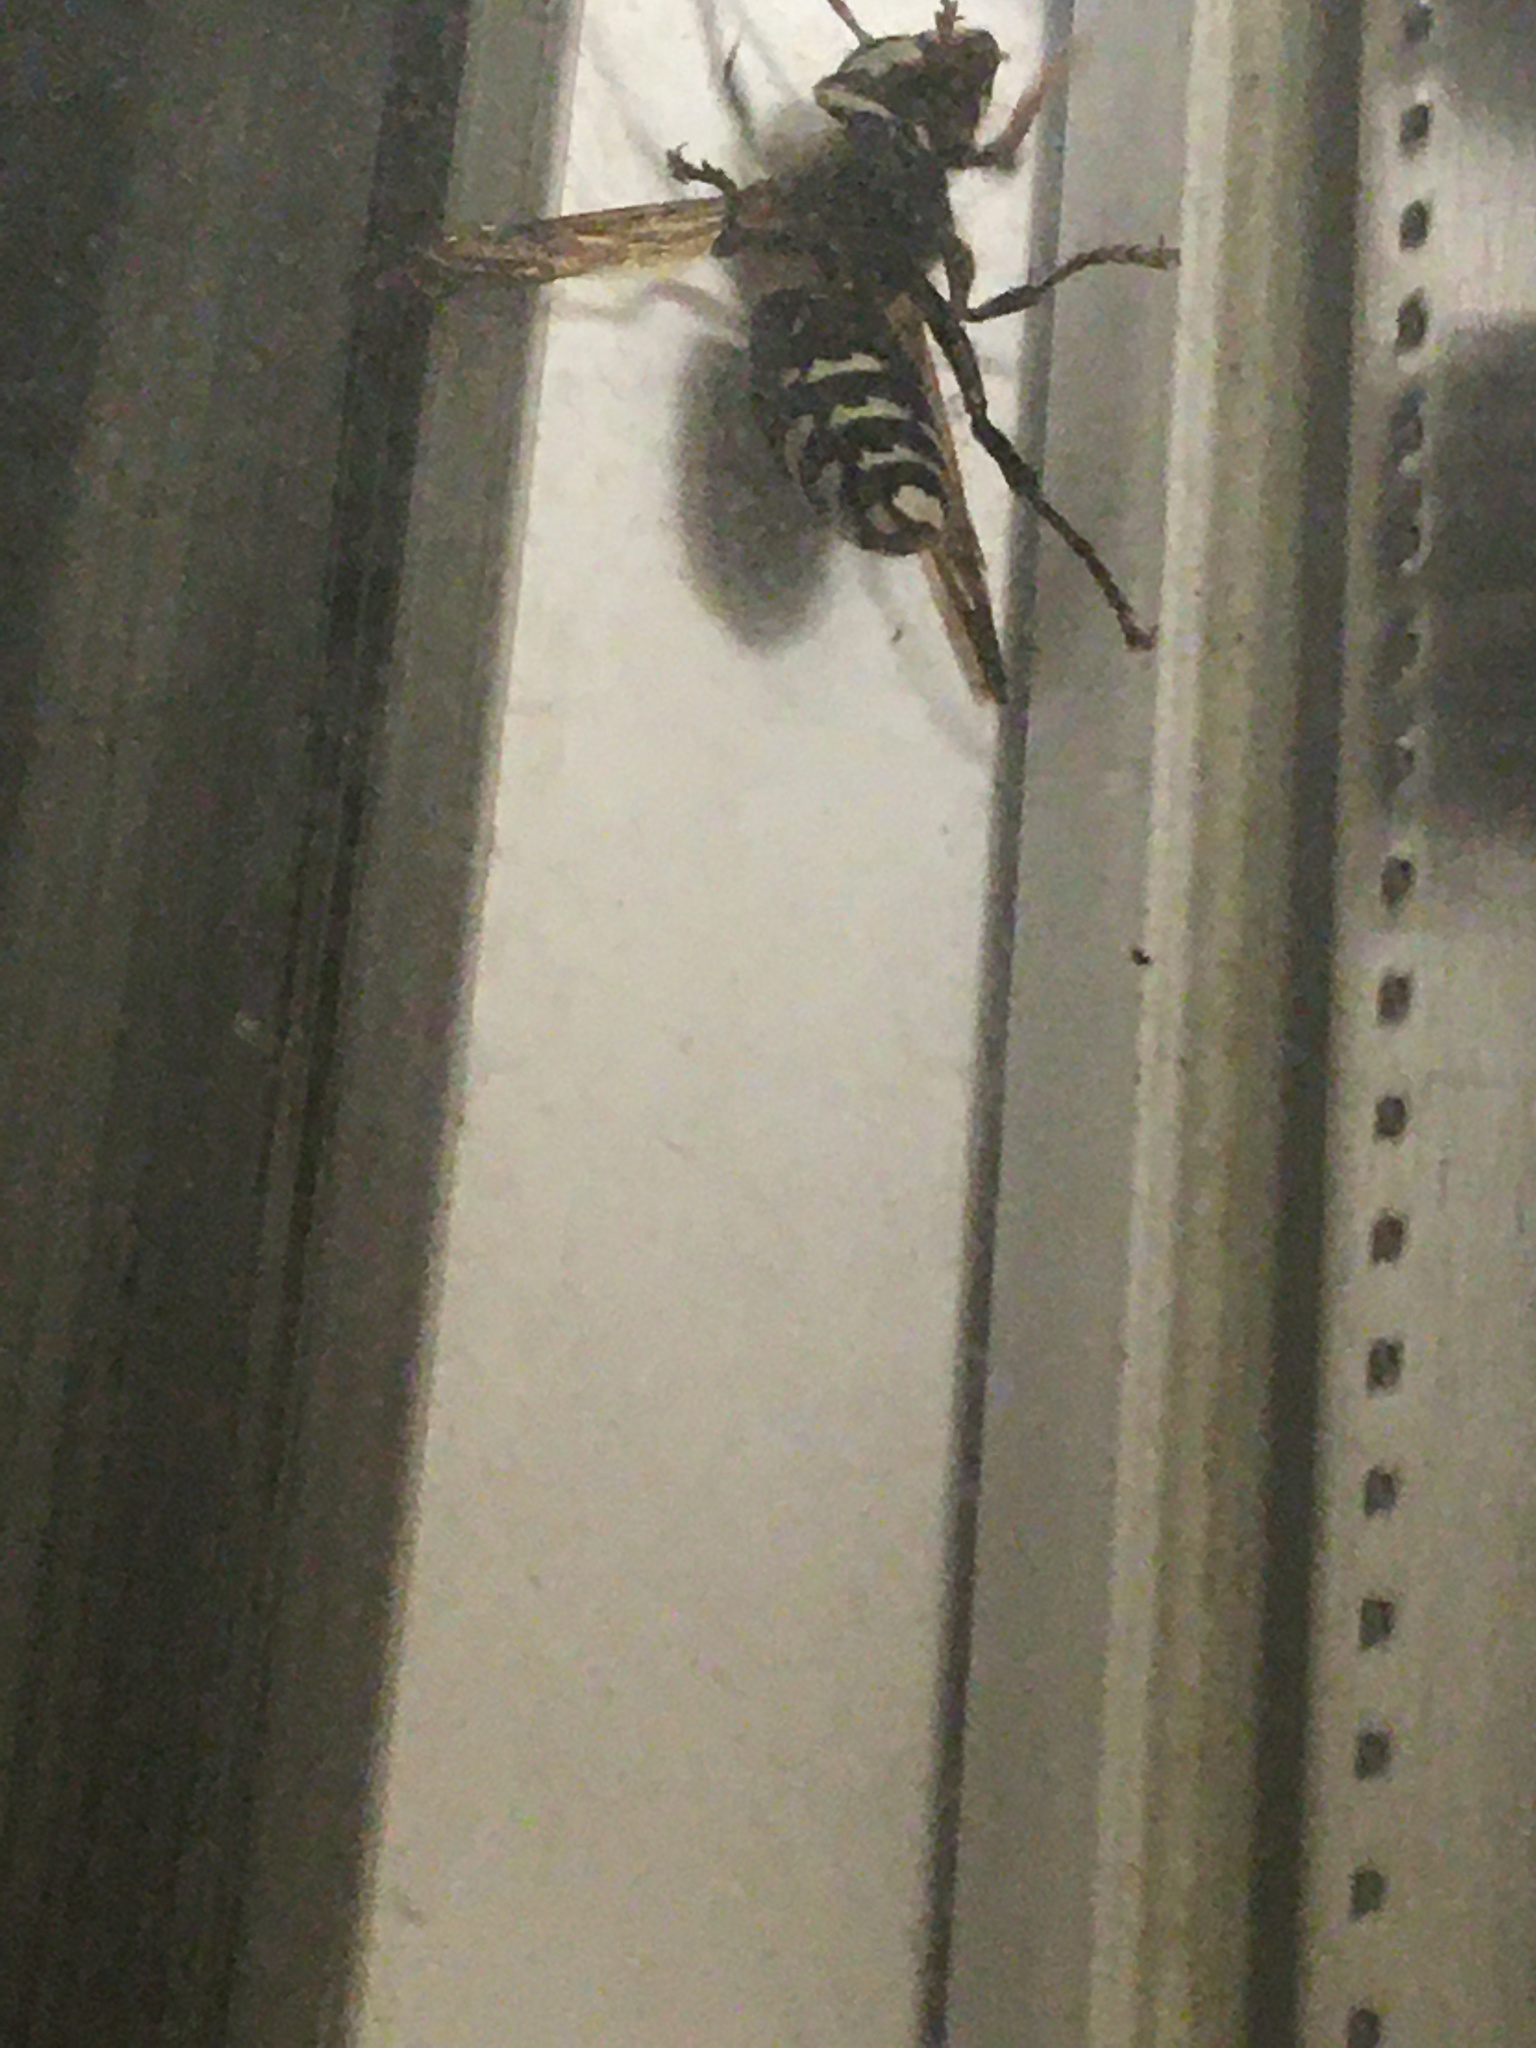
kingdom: Animalia
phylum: Arthropoda
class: Insecta
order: Hymenoptera
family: Vespidae
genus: Dolichovespula
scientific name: Dolichovespula maculata
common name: Bald-faced hornet
